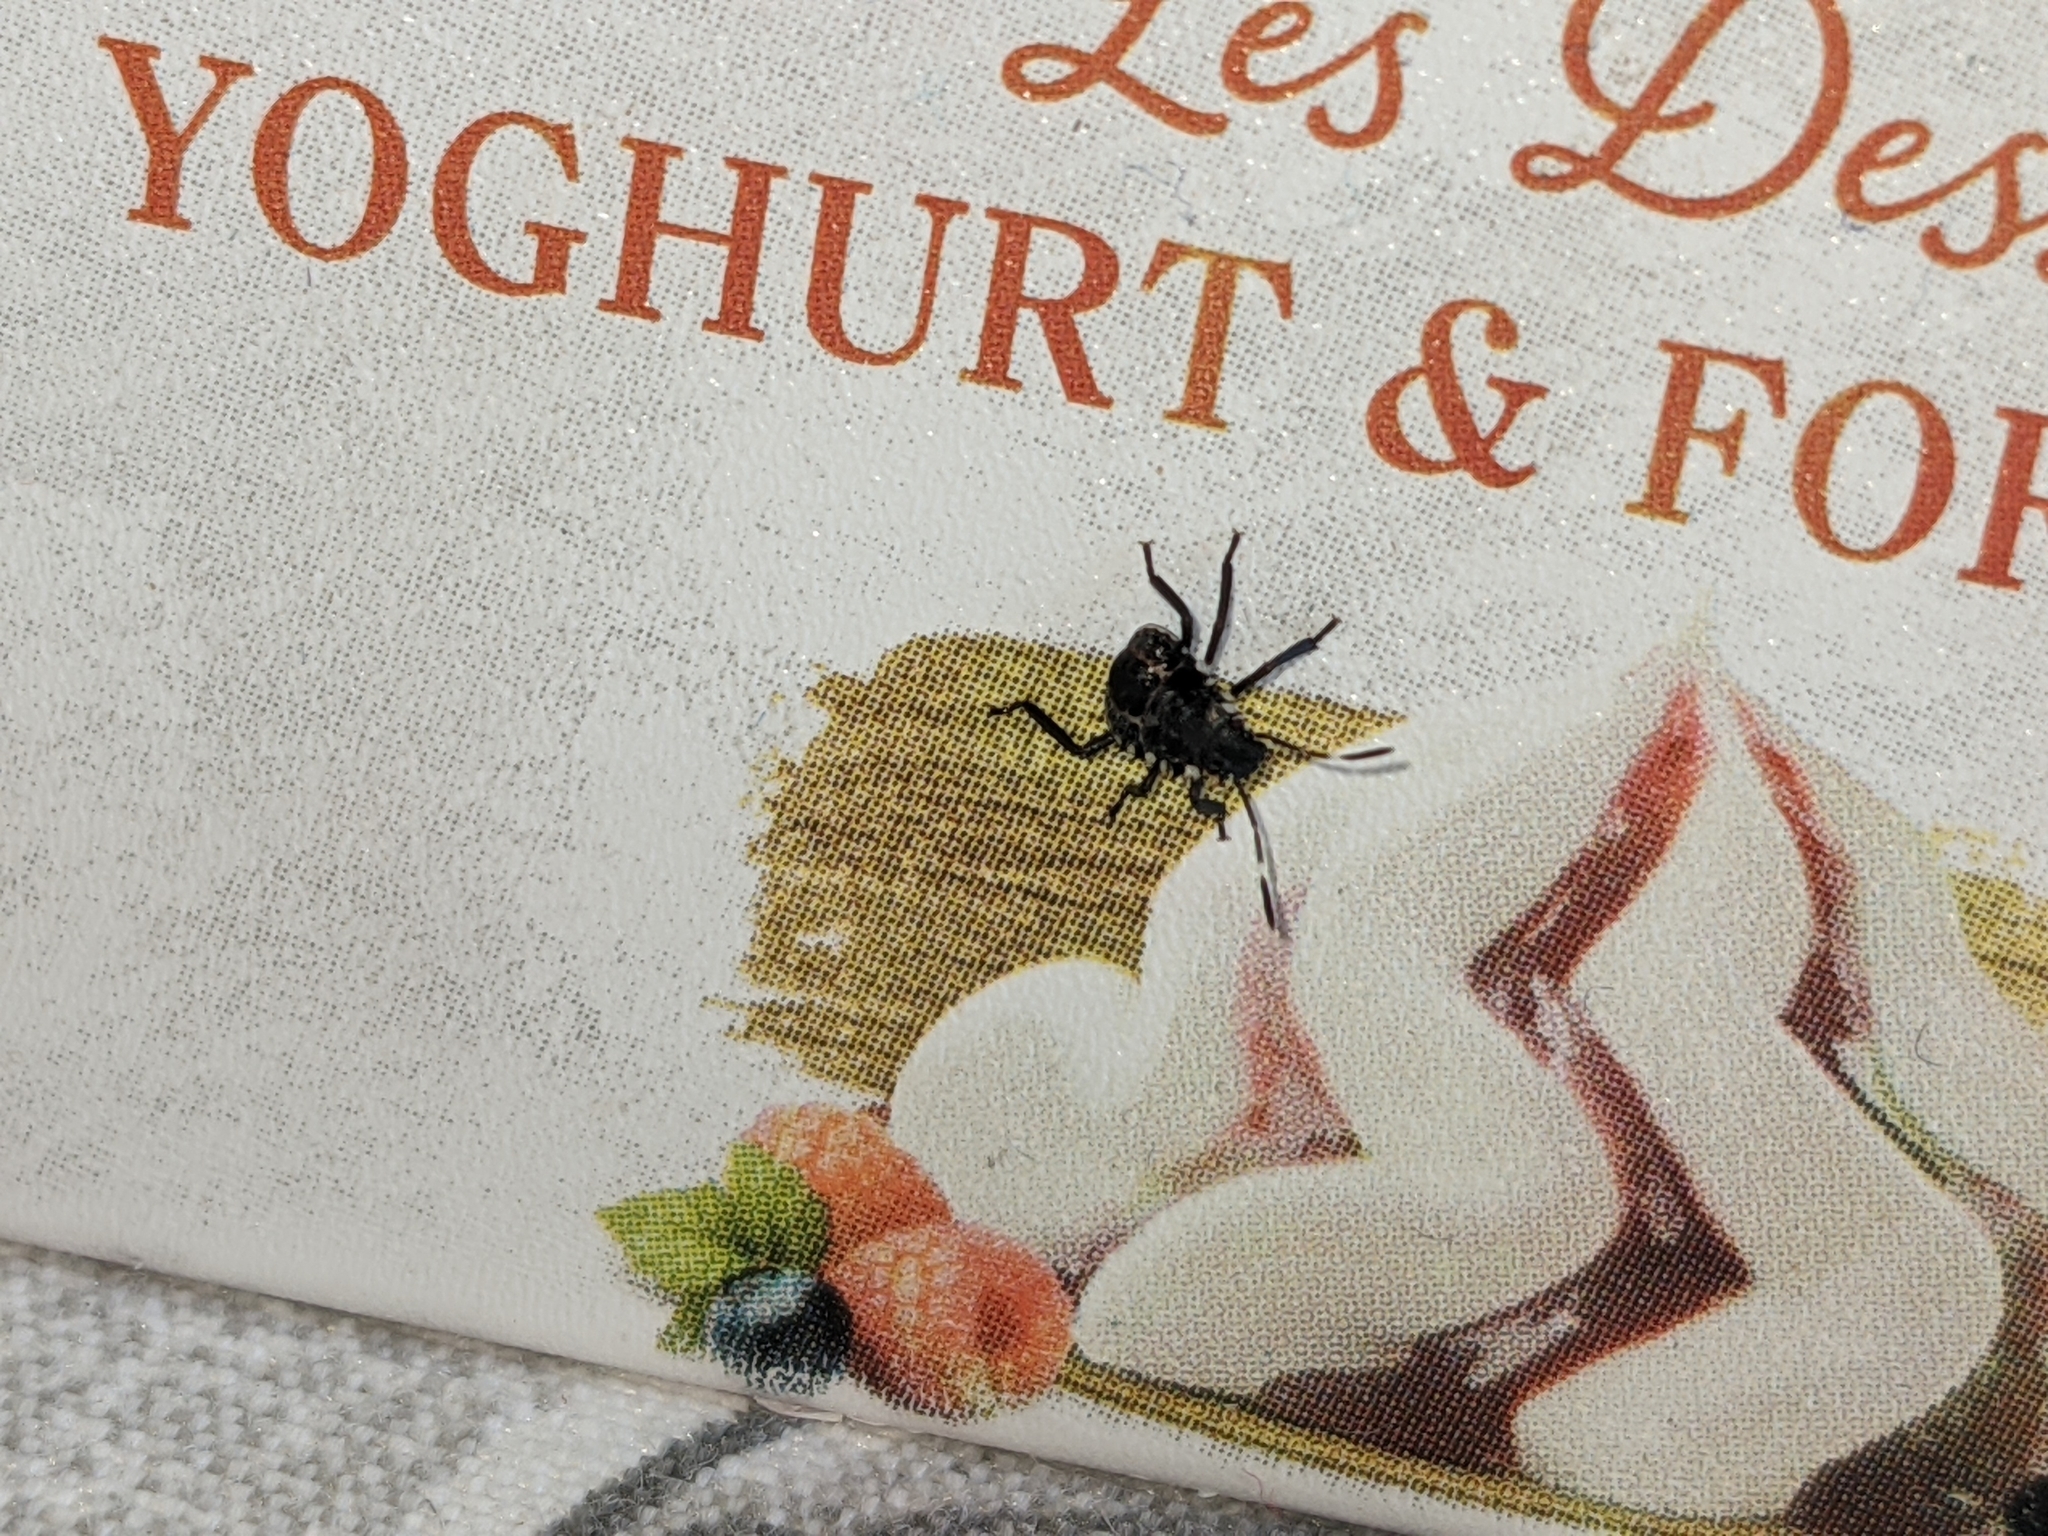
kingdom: Animalia
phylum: Arthropoda
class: Insecta
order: Hemiptera
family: Pentatomidae
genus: Halyomorpha
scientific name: Halyomorpha halys
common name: Brown marmorated stink bug
